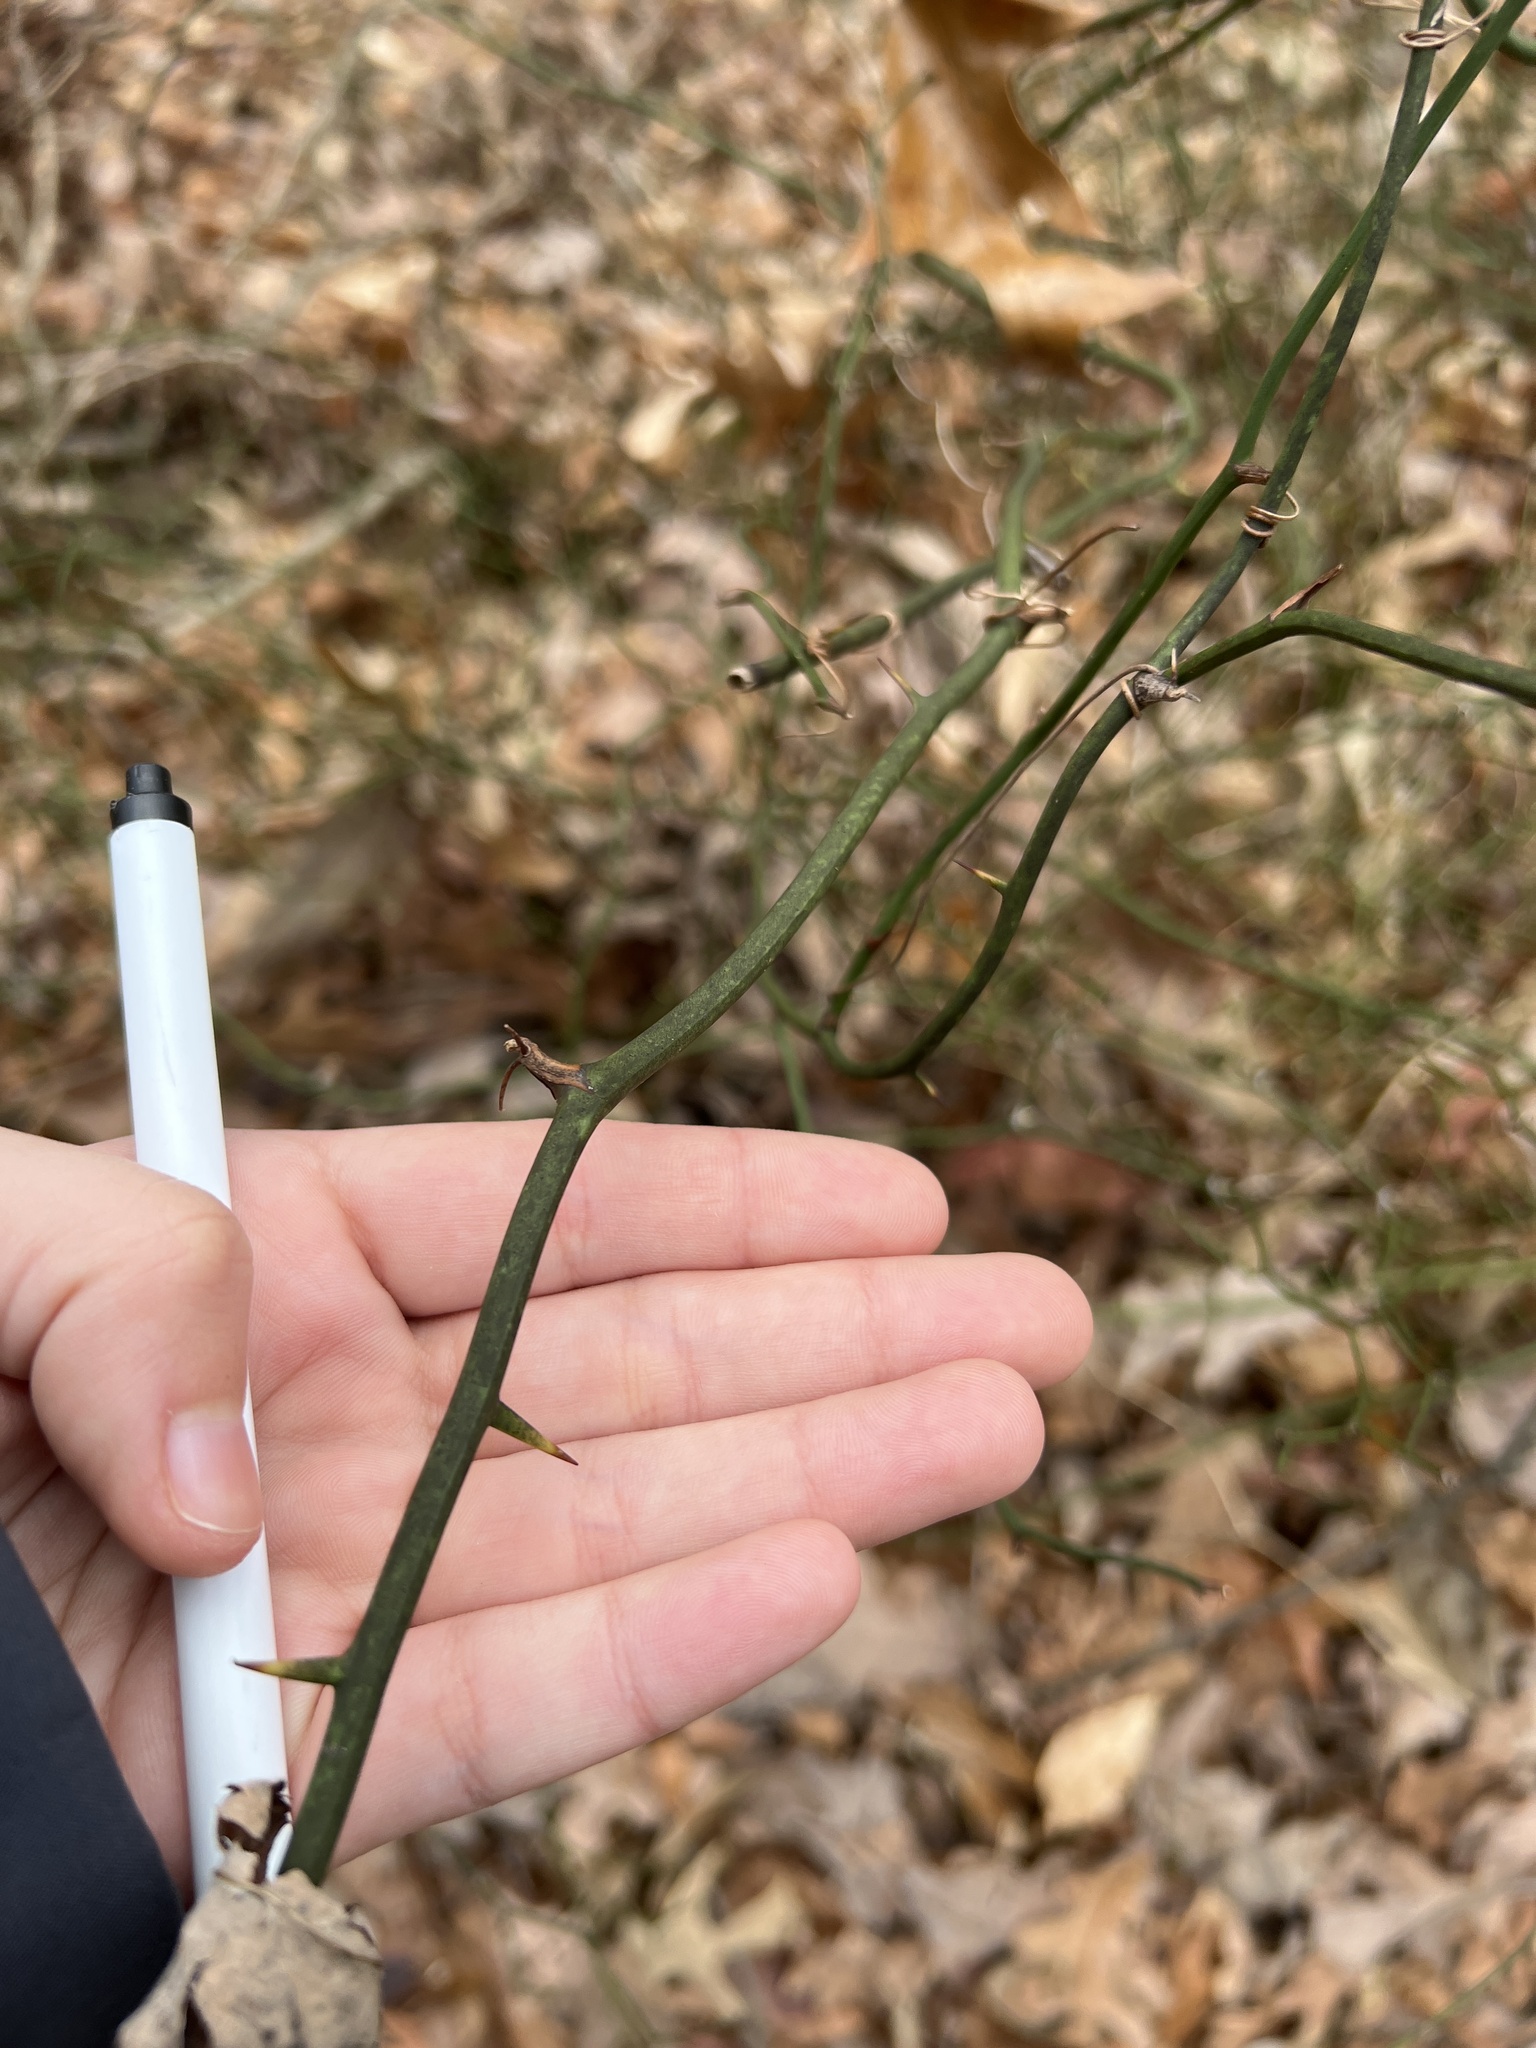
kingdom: Plantae
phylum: Tracheophyta
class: Liliopsida
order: Liliales
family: Smilacaceae
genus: Smilax
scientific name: Smilax rotundifolia
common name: Bullbriar
